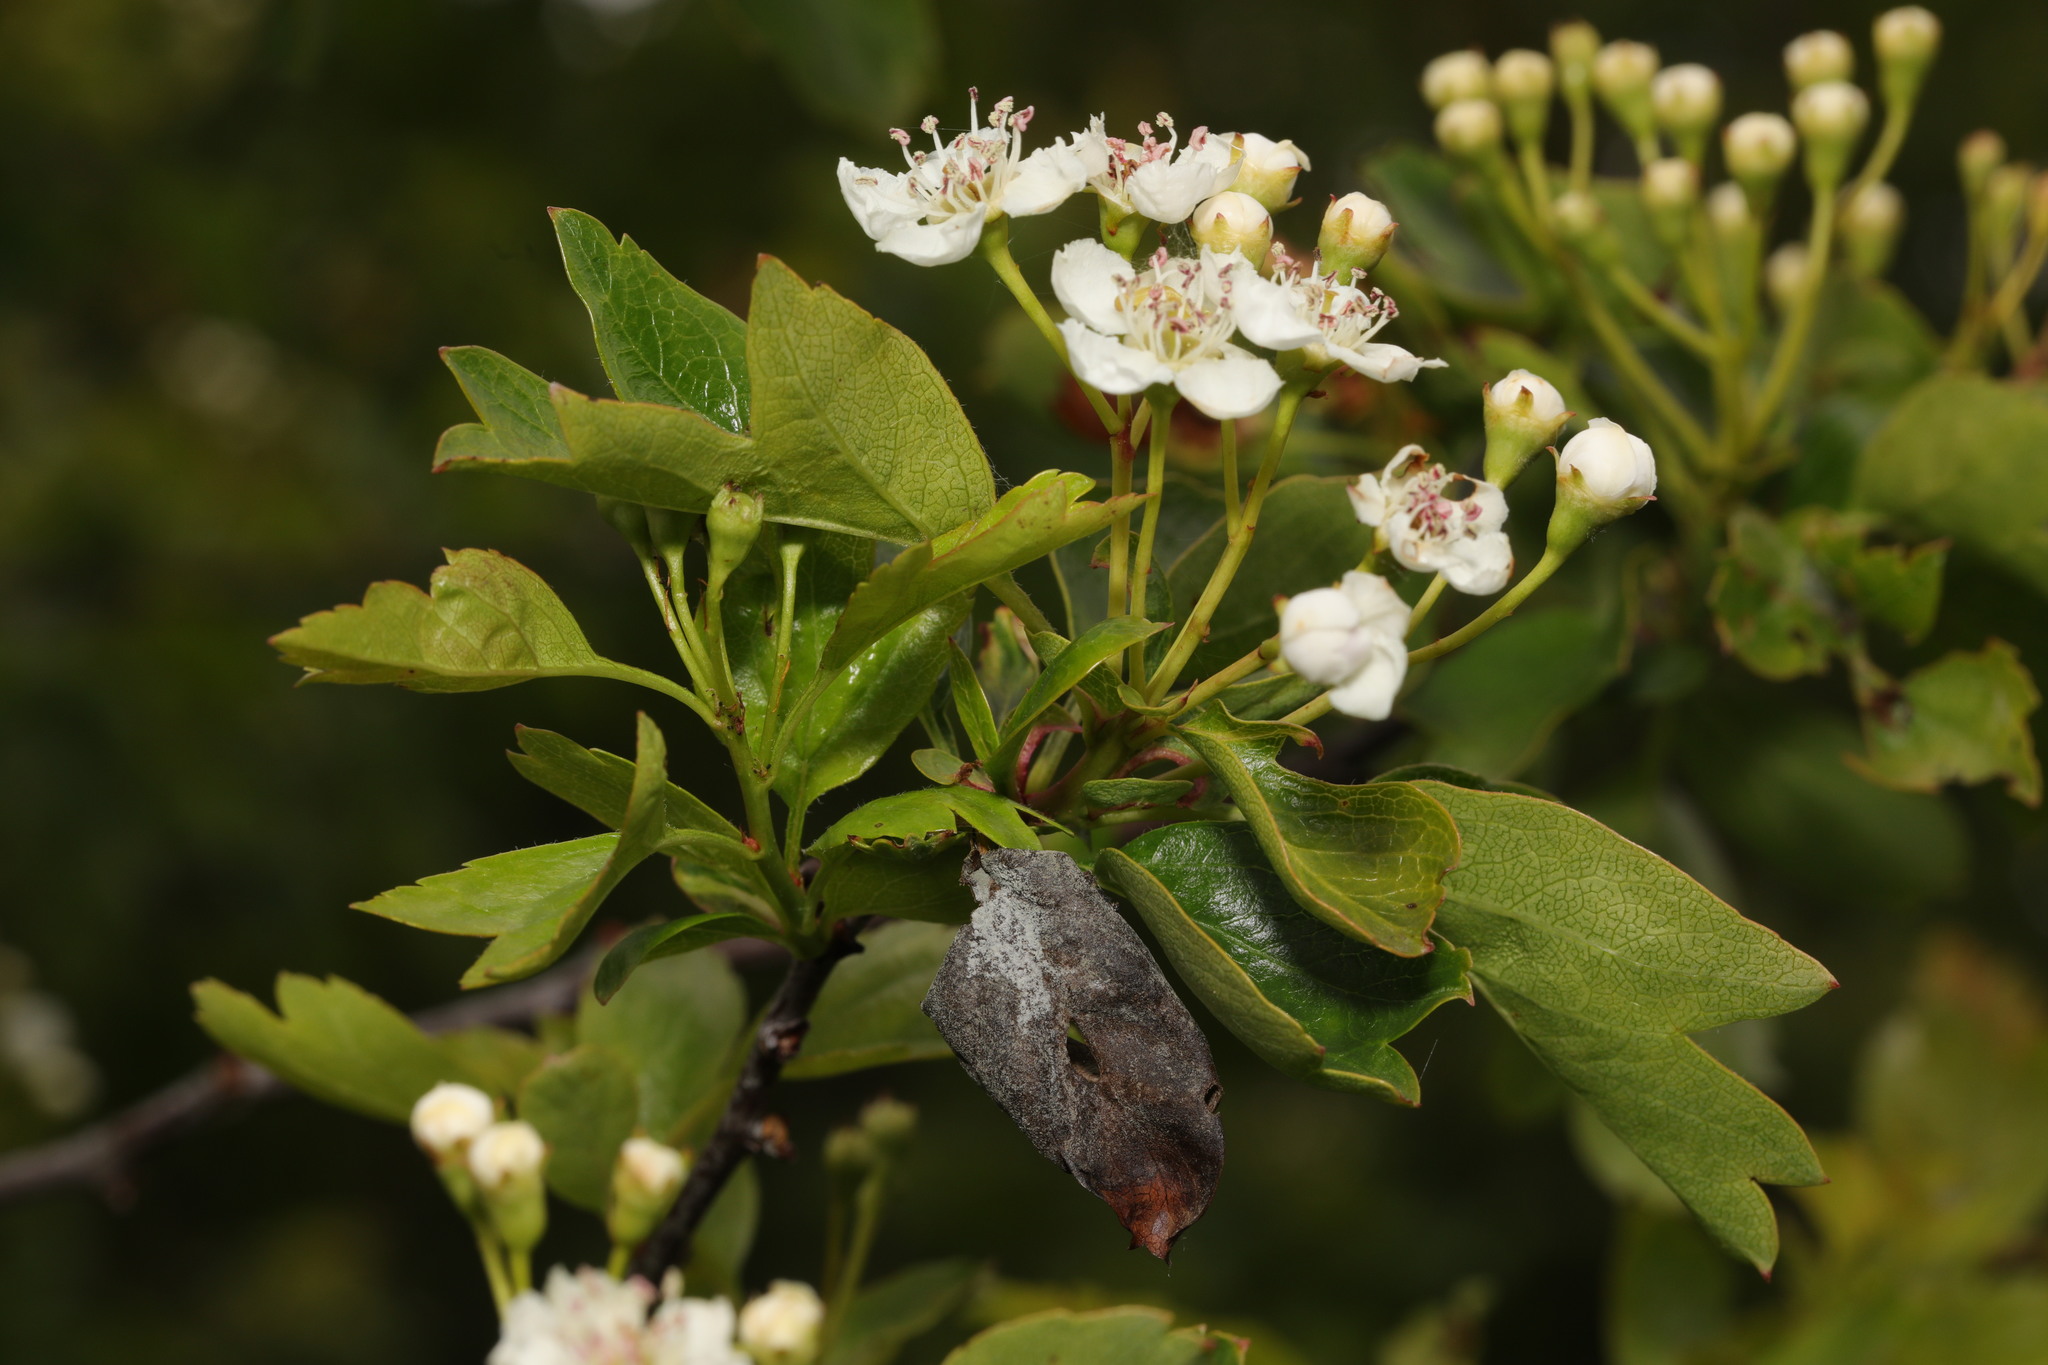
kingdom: Plantae
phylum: Tracheophyta
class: Magnoliopsida
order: Rosales
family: Rosaceae
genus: Crataegus
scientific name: Crataegus monogyna
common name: Hawthorn
